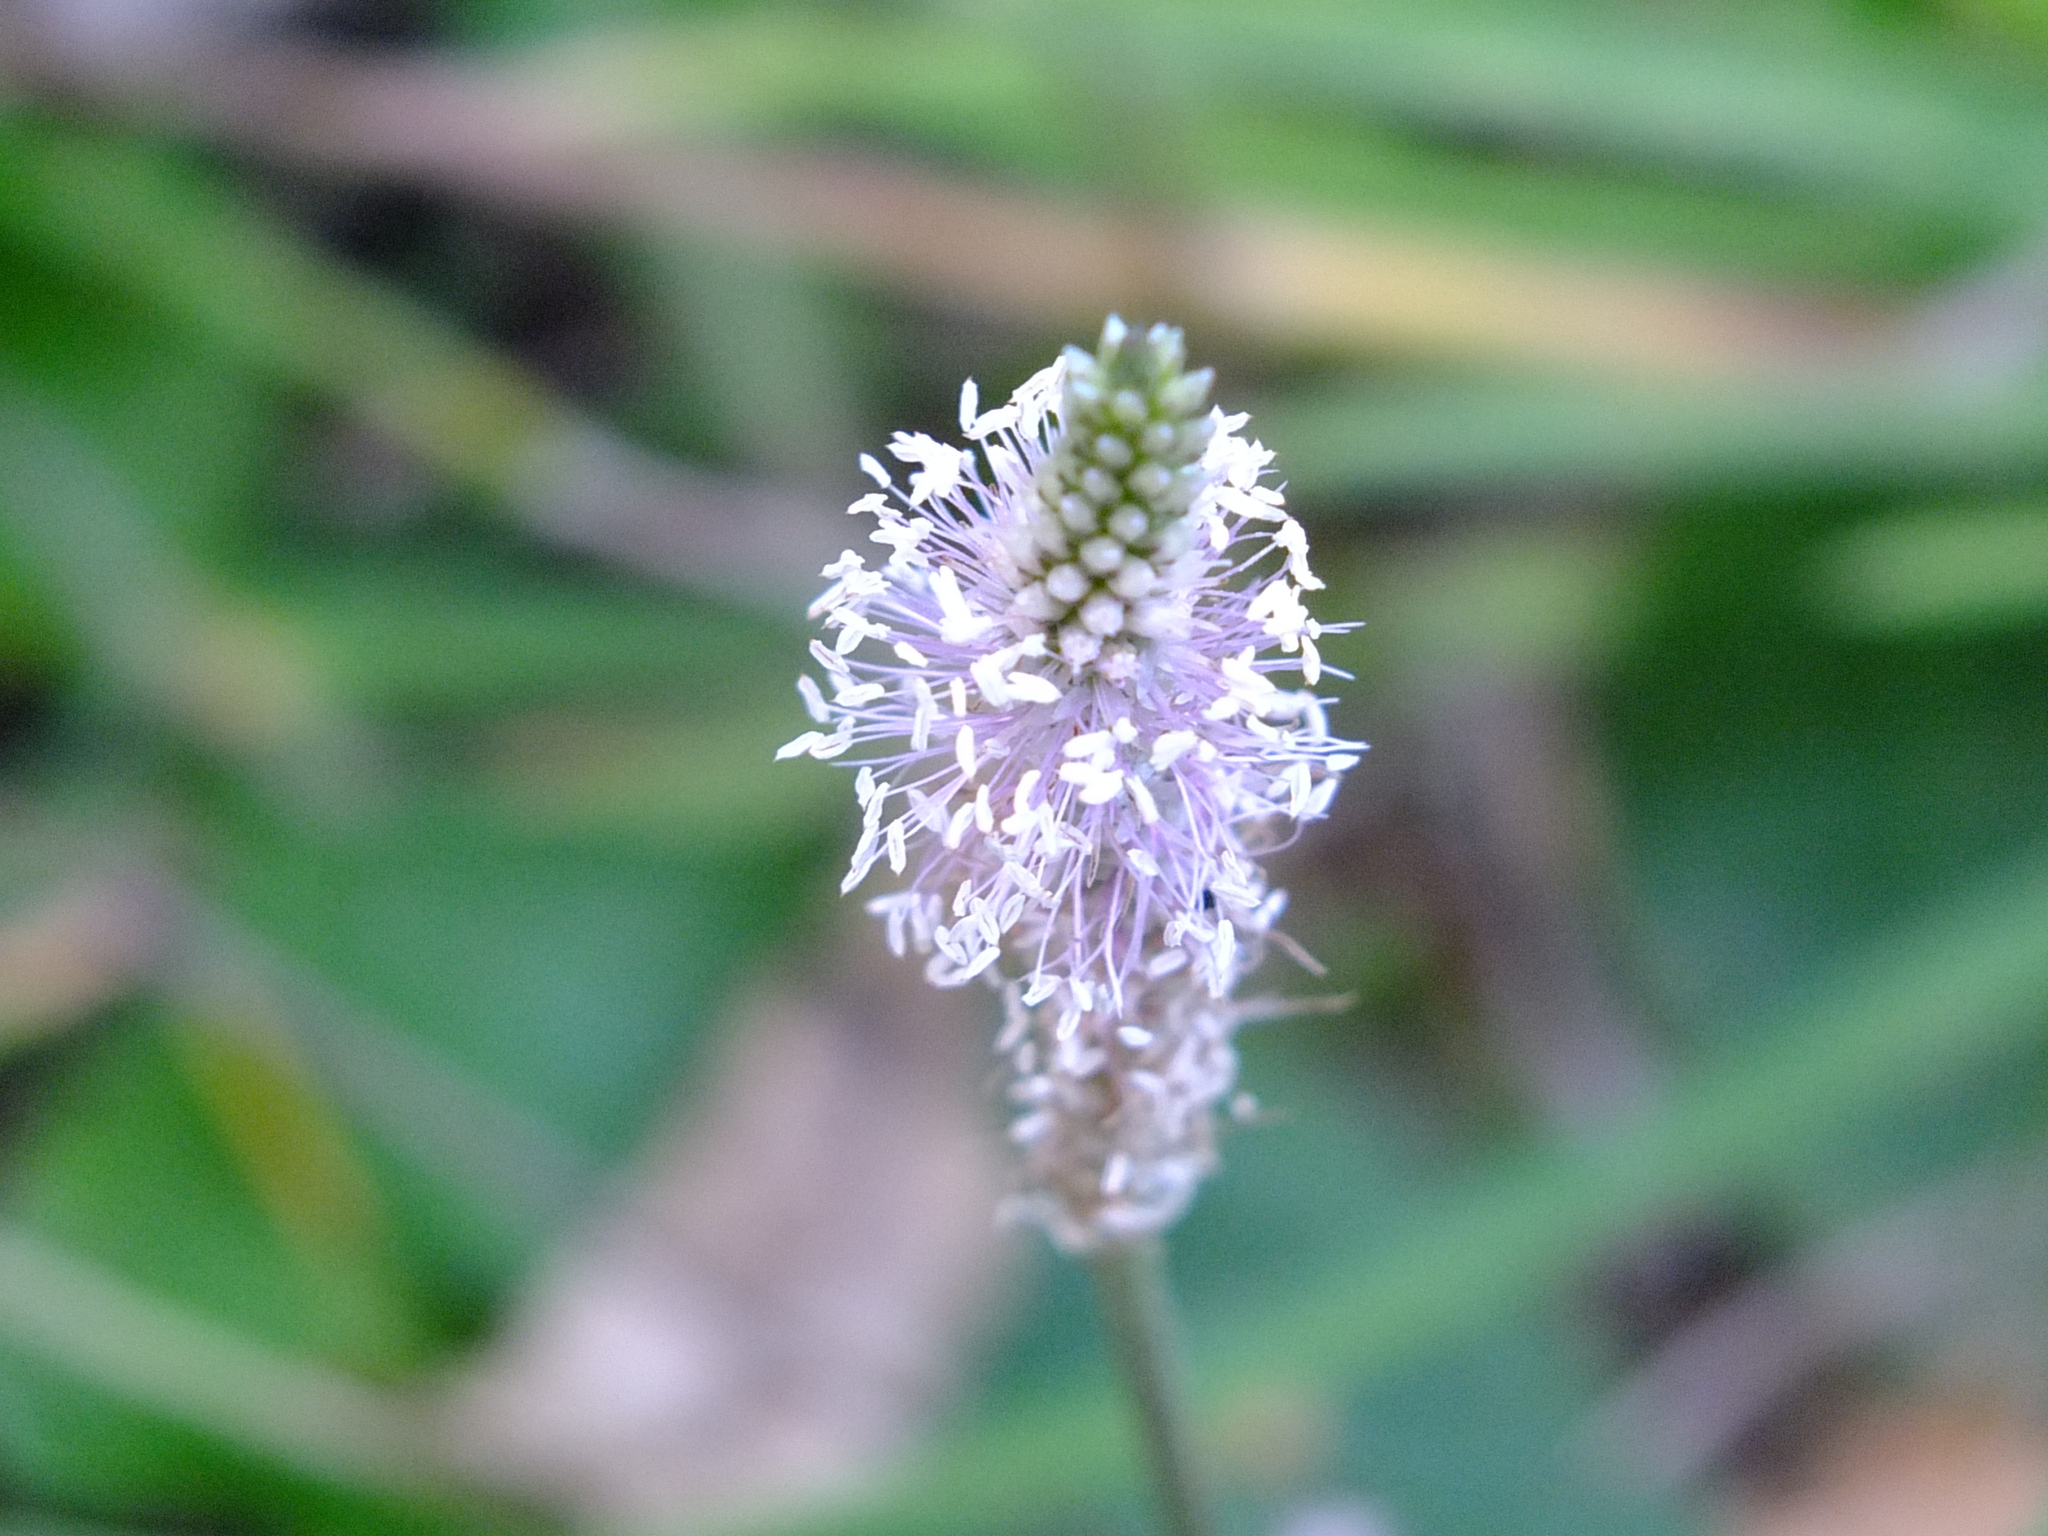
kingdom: Plantae
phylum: Tracheophyta
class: Magnoliopsida
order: Lamiales
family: Plantaginaceae
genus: Plantago
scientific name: Plantago media
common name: Hoary plantain
